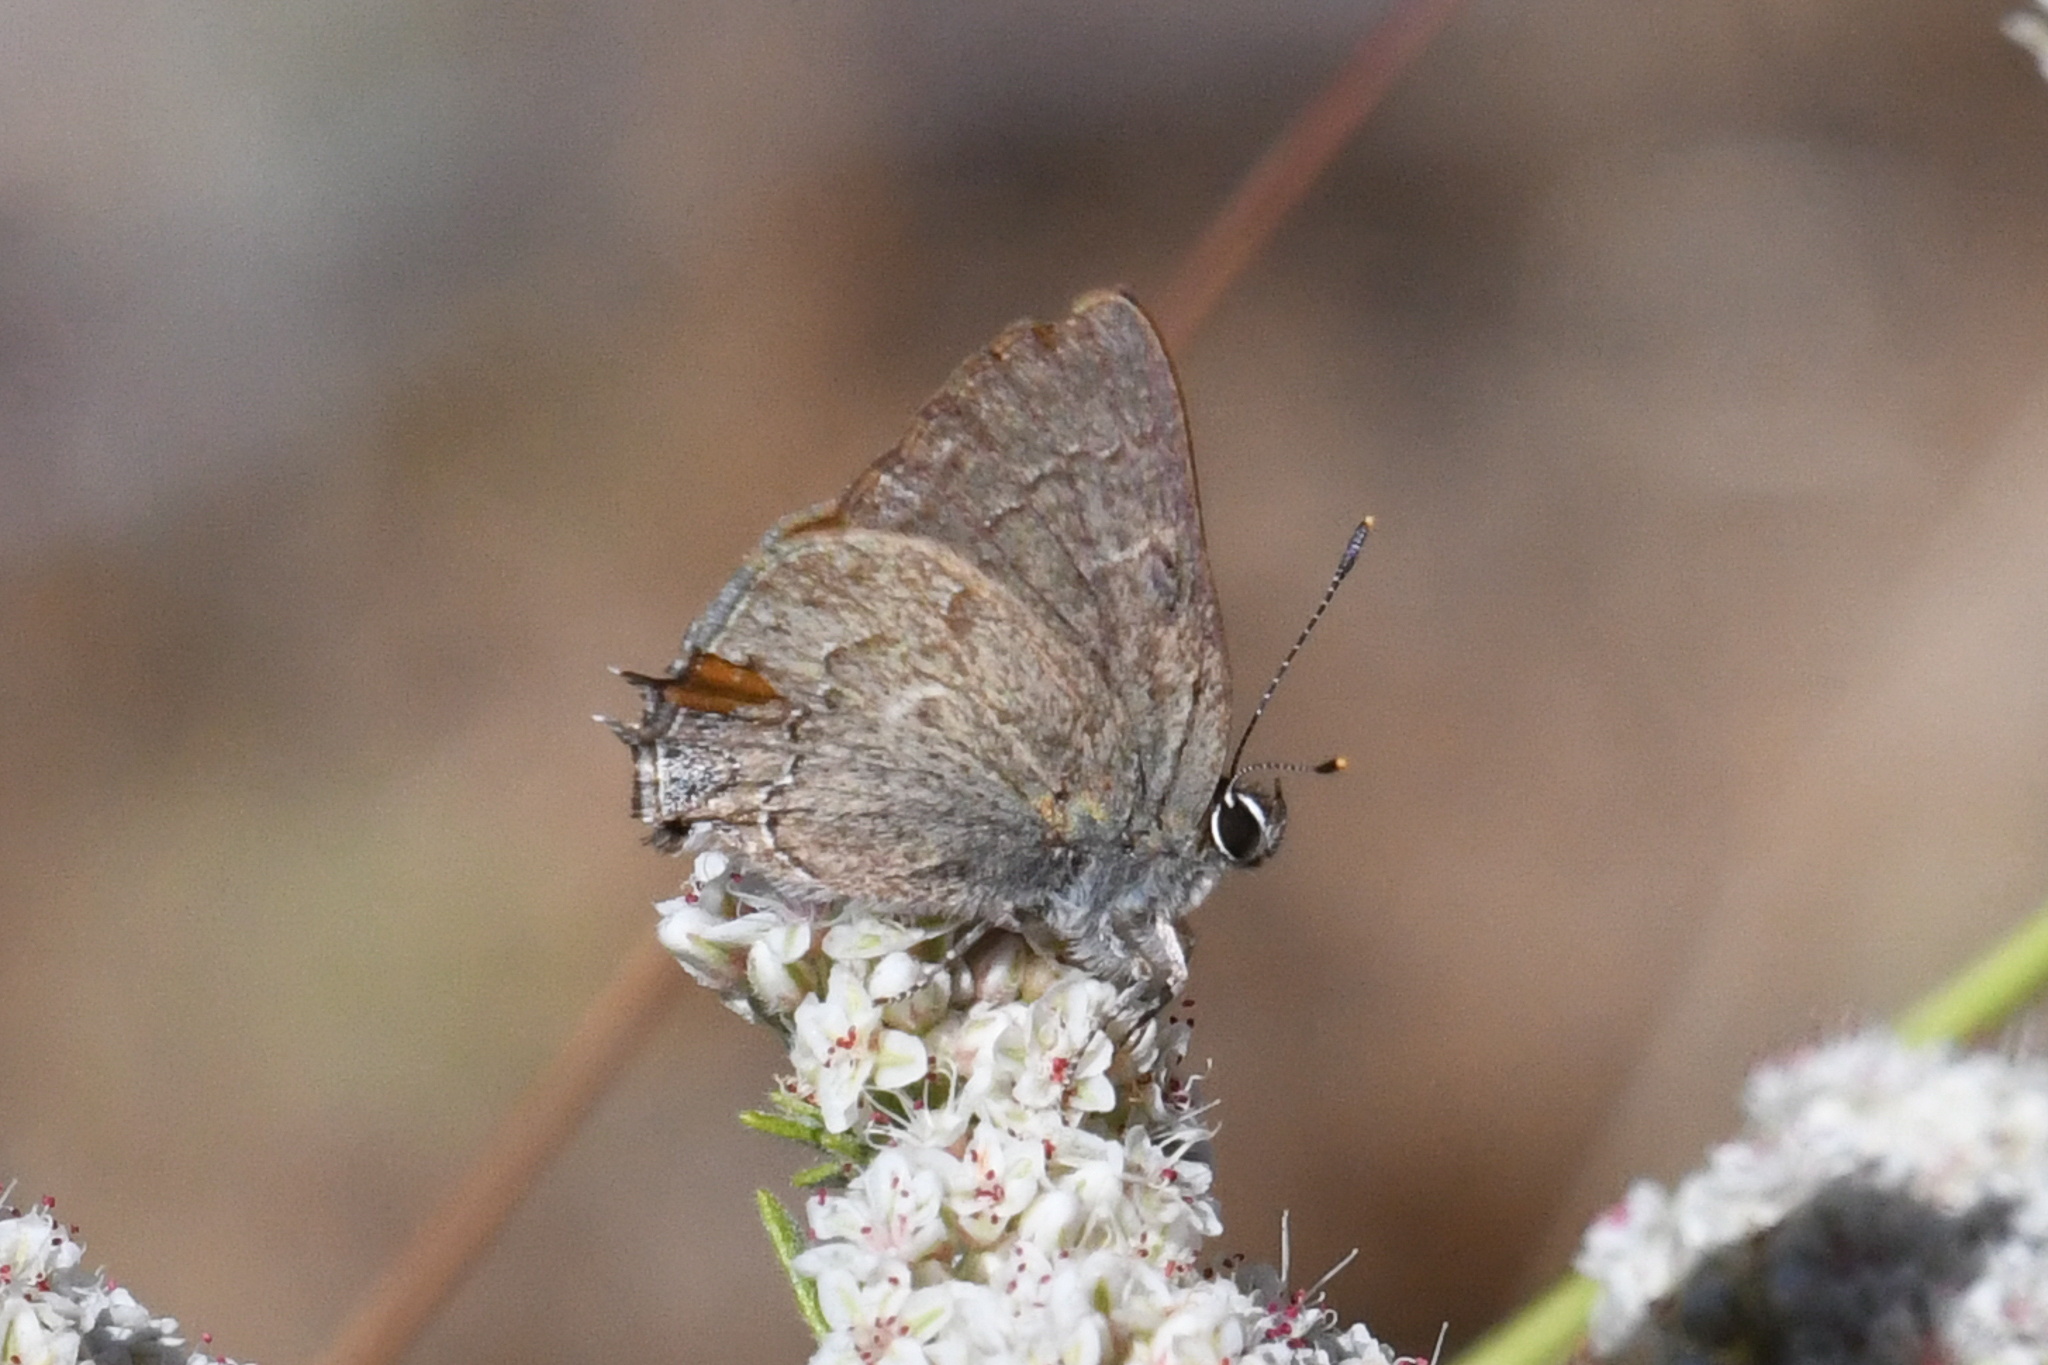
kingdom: Animalia
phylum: Arthropoda
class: Insecta
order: Lepidoptera
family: Lycaenidae
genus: Strymon
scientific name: Strymon saepium
